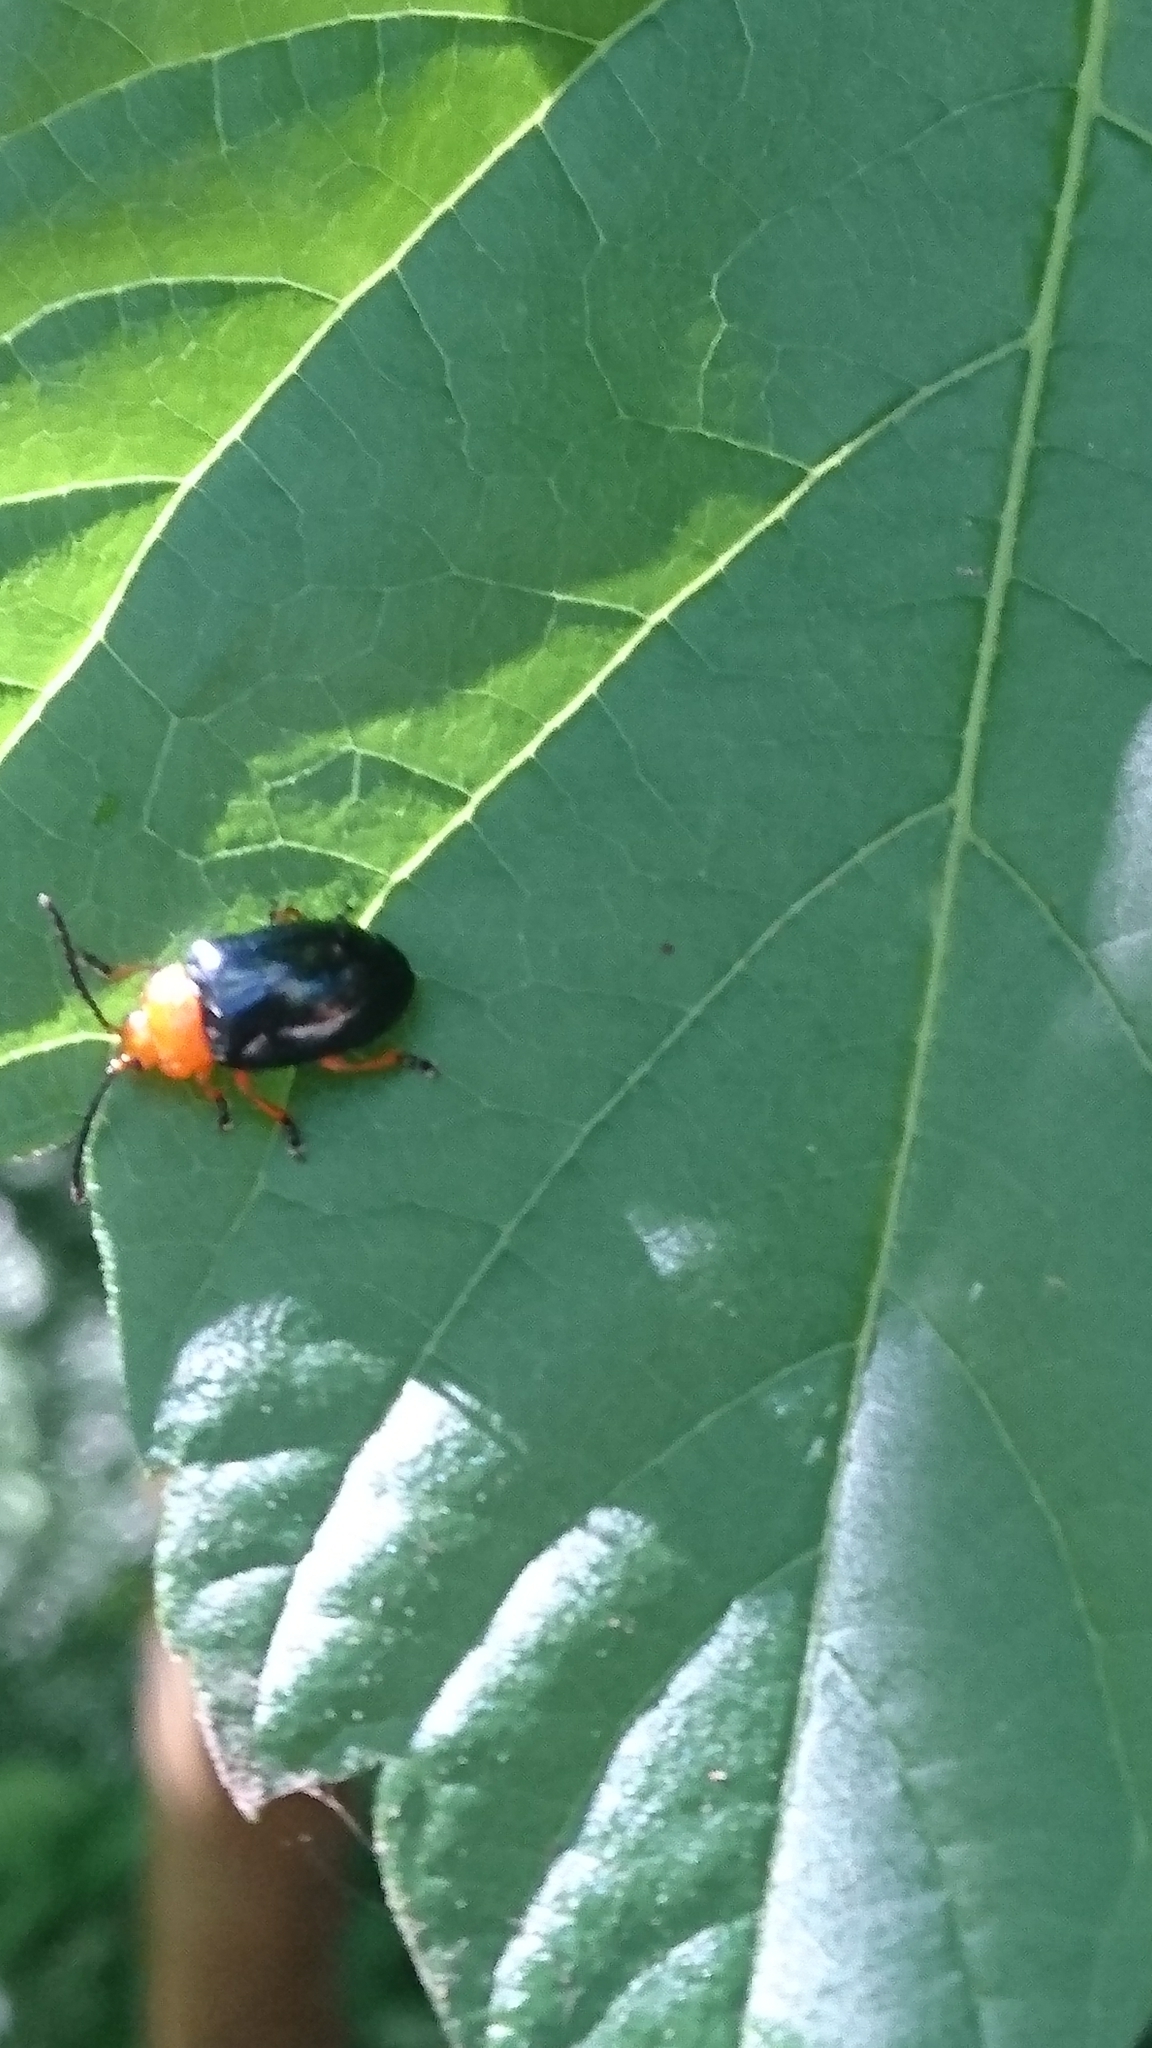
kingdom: Animalia
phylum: Arthropoda
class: Insecta
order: Coleoptera
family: Chrysomelidae
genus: Lamprolina
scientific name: Lamprolina
